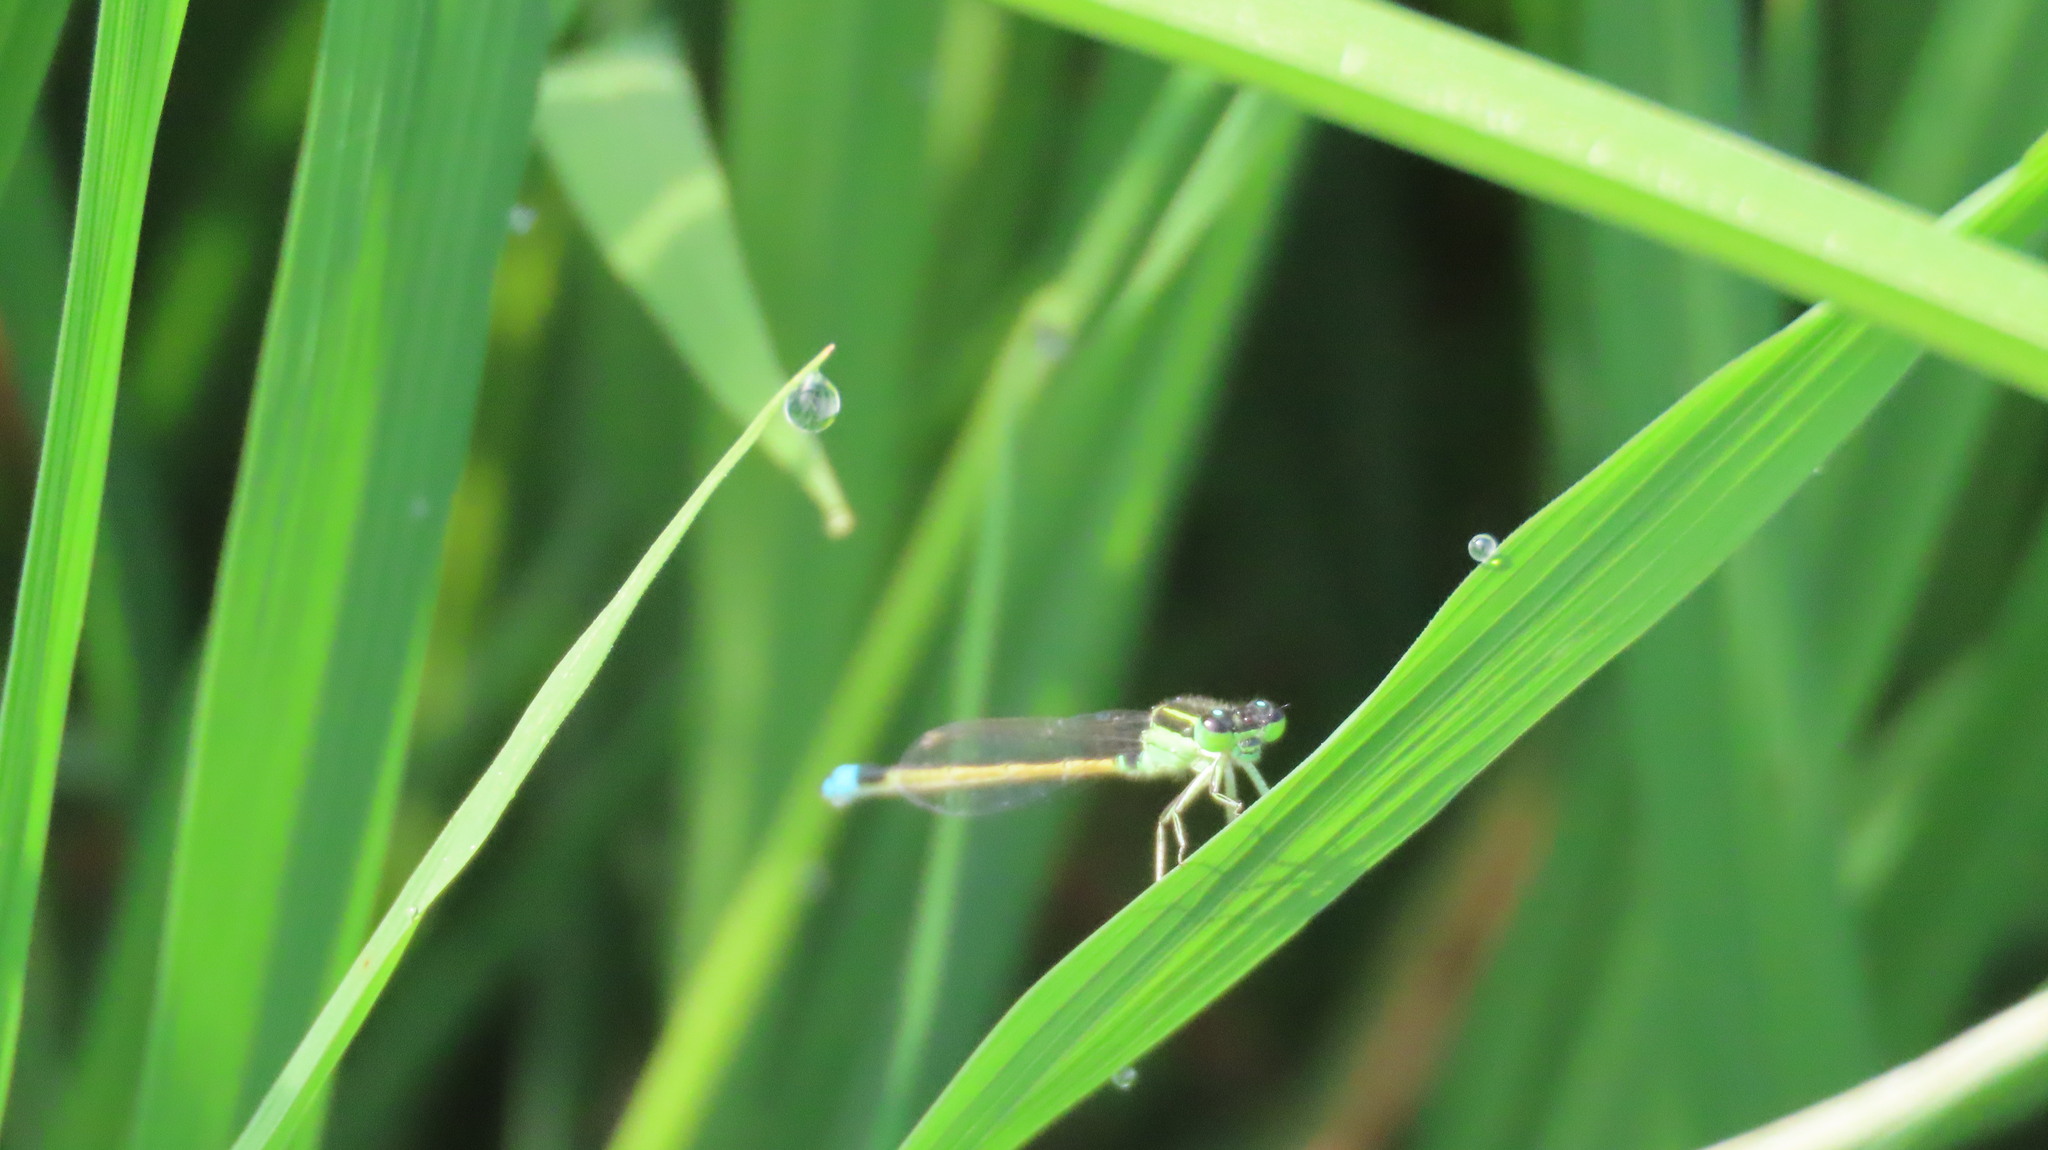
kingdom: Animalia
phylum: Arthropoda
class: Insecta
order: Odonata
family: Coenagrionidae
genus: Ischnura
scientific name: Ischnura senegalensis
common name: Tropical bluetail
